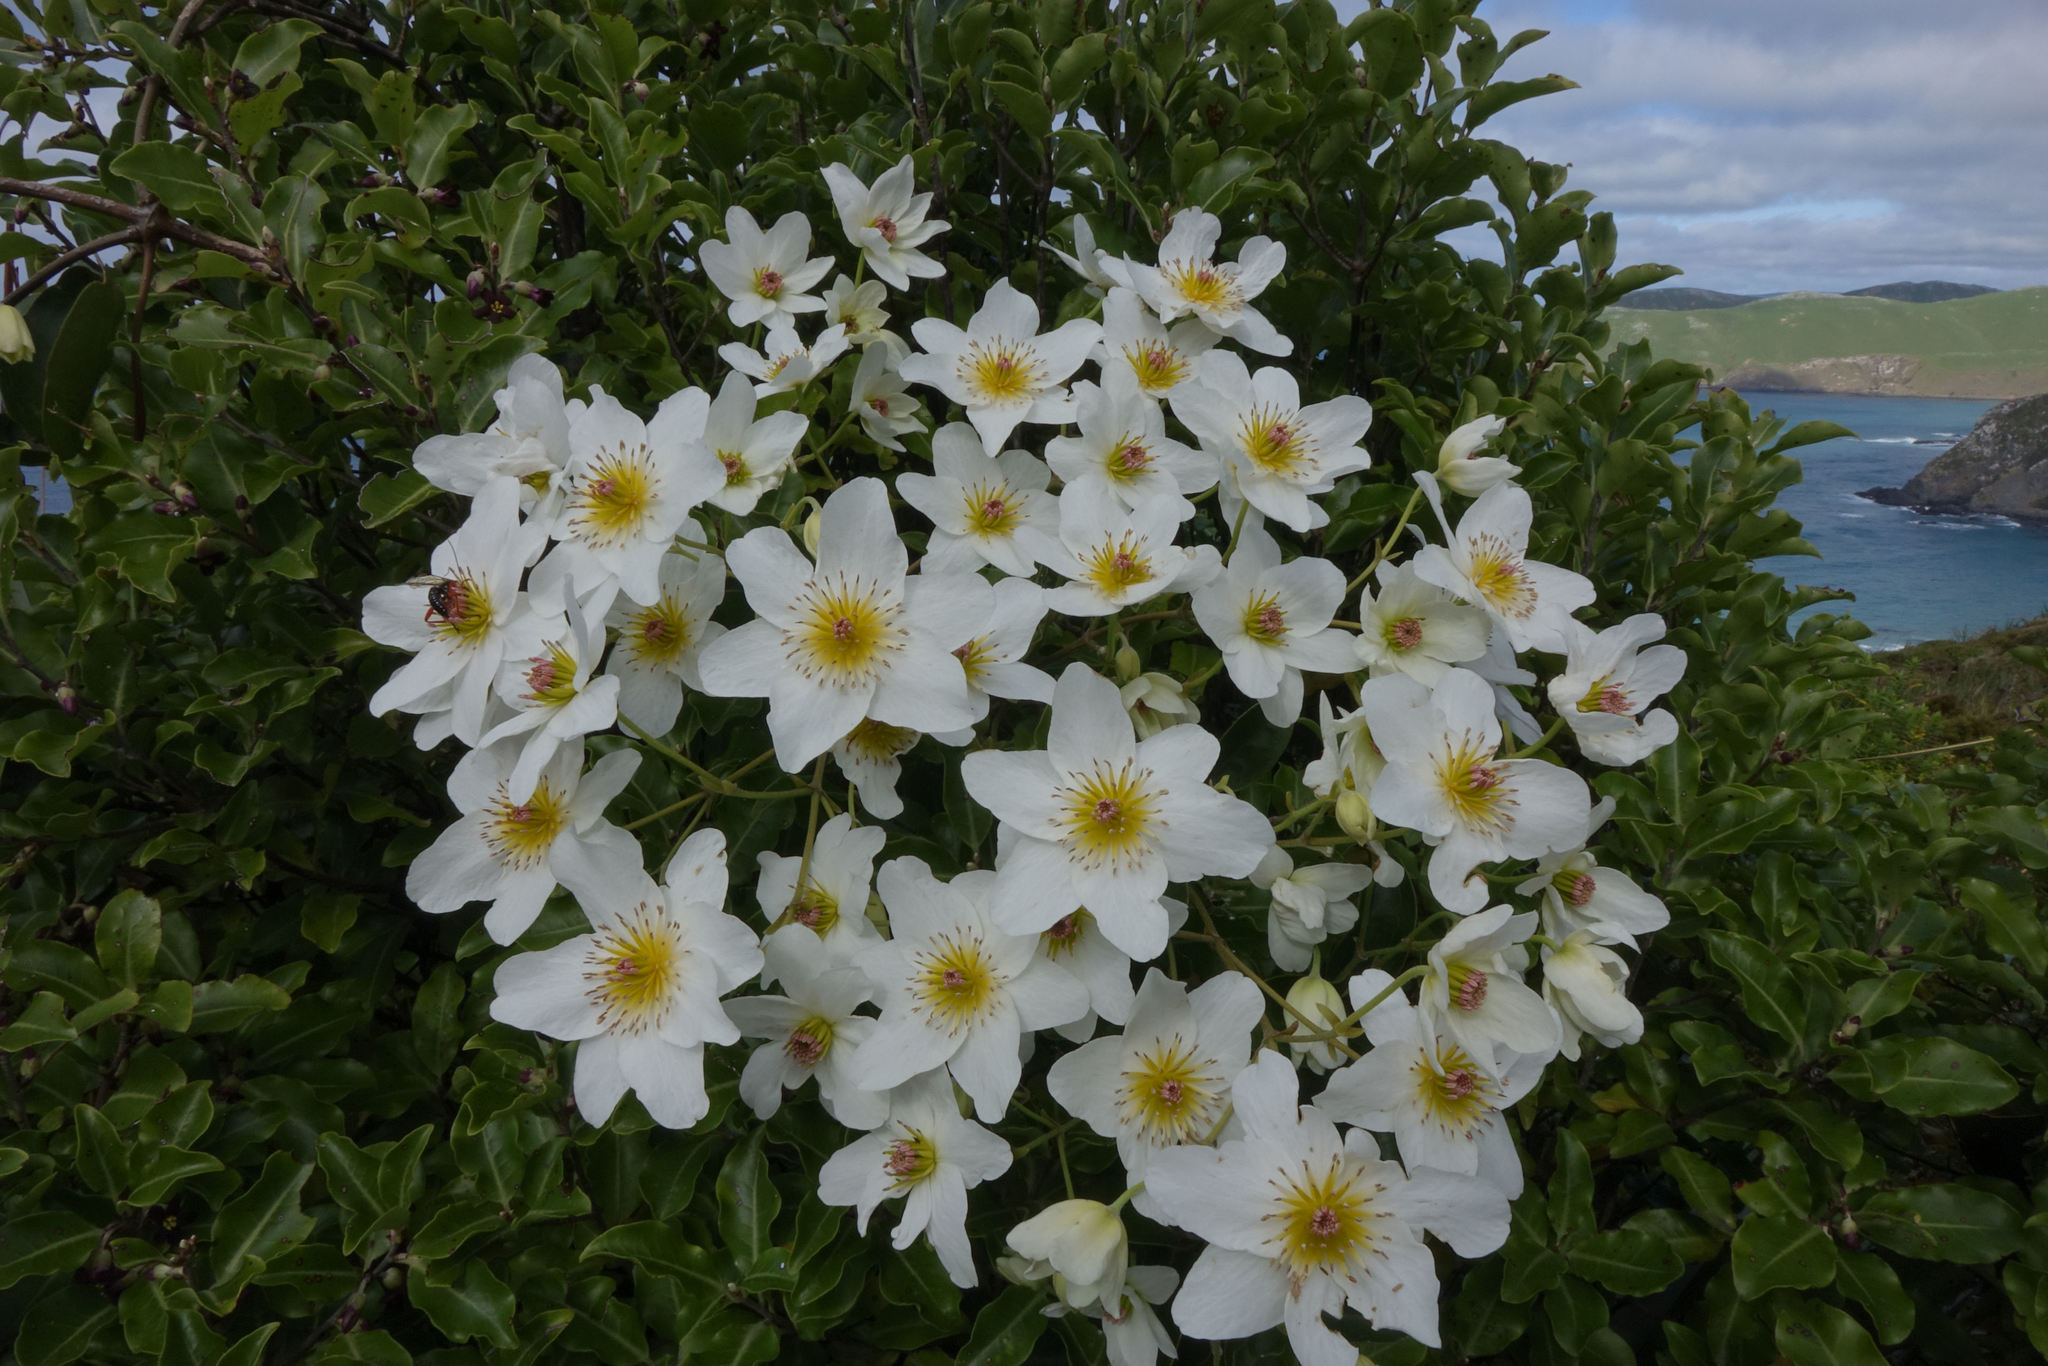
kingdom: Plantae
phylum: Tracheophyta
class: Magnoliopsida
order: Ranunculales
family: Ranunculaceae
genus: Clematis
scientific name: Clematis paniculata
